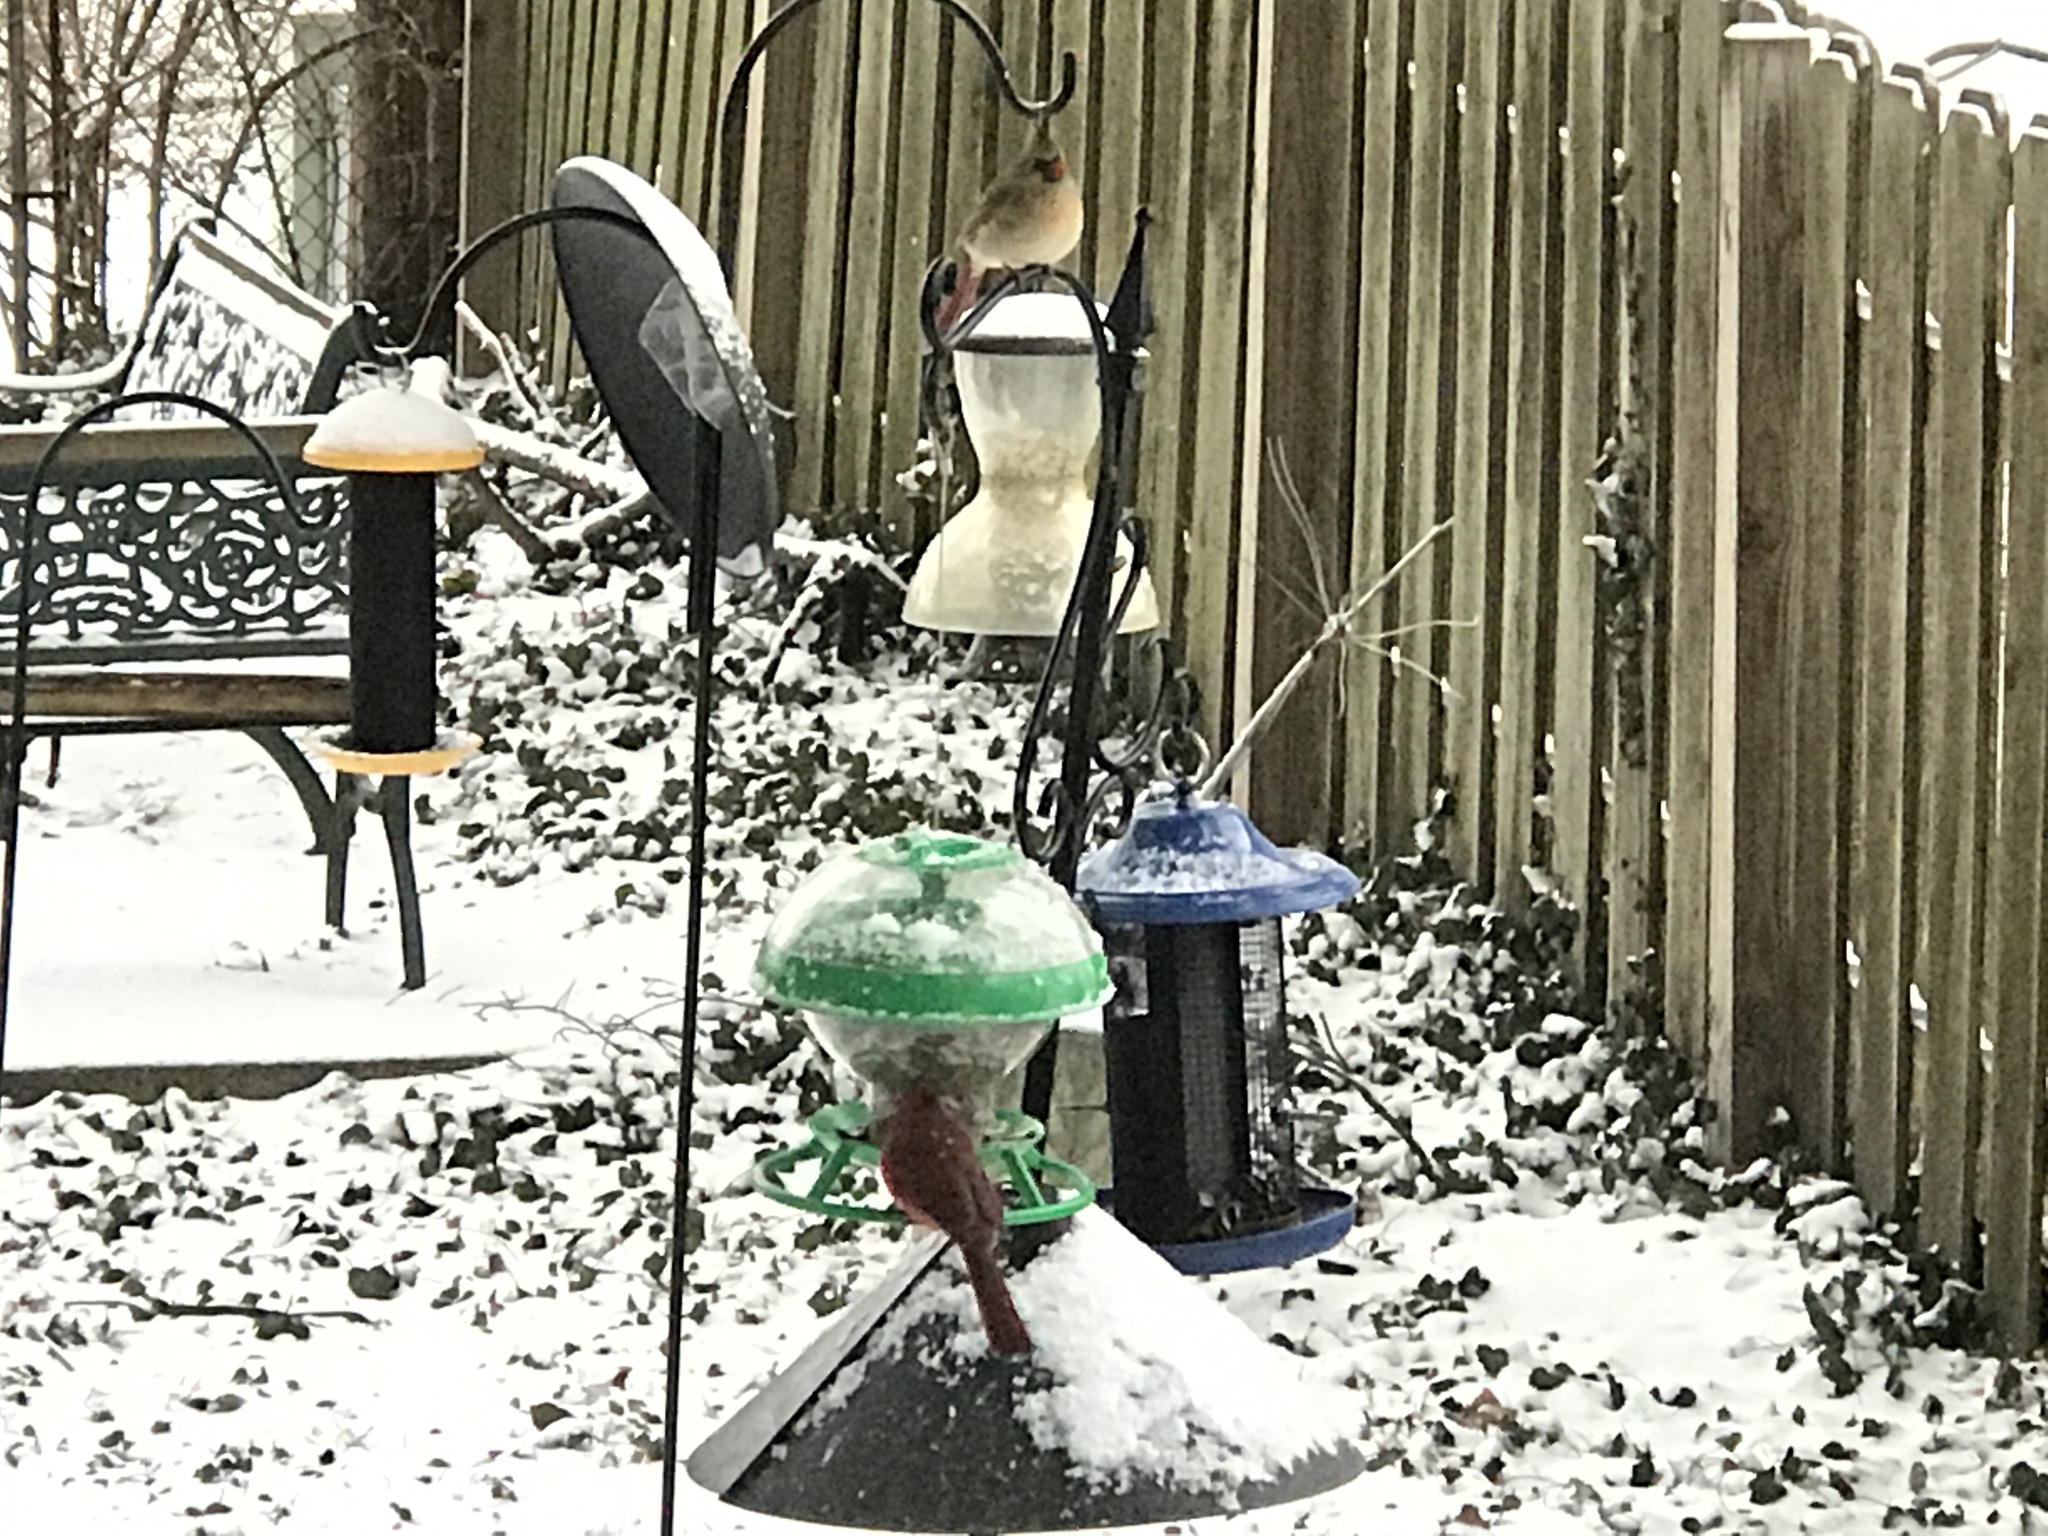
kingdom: Animalia
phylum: Chordata
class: Aves
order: Passeriformes
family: Cardinalidae
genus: Cardinalis
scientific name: Cardinalis cardinalis
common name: Northern cardinal
